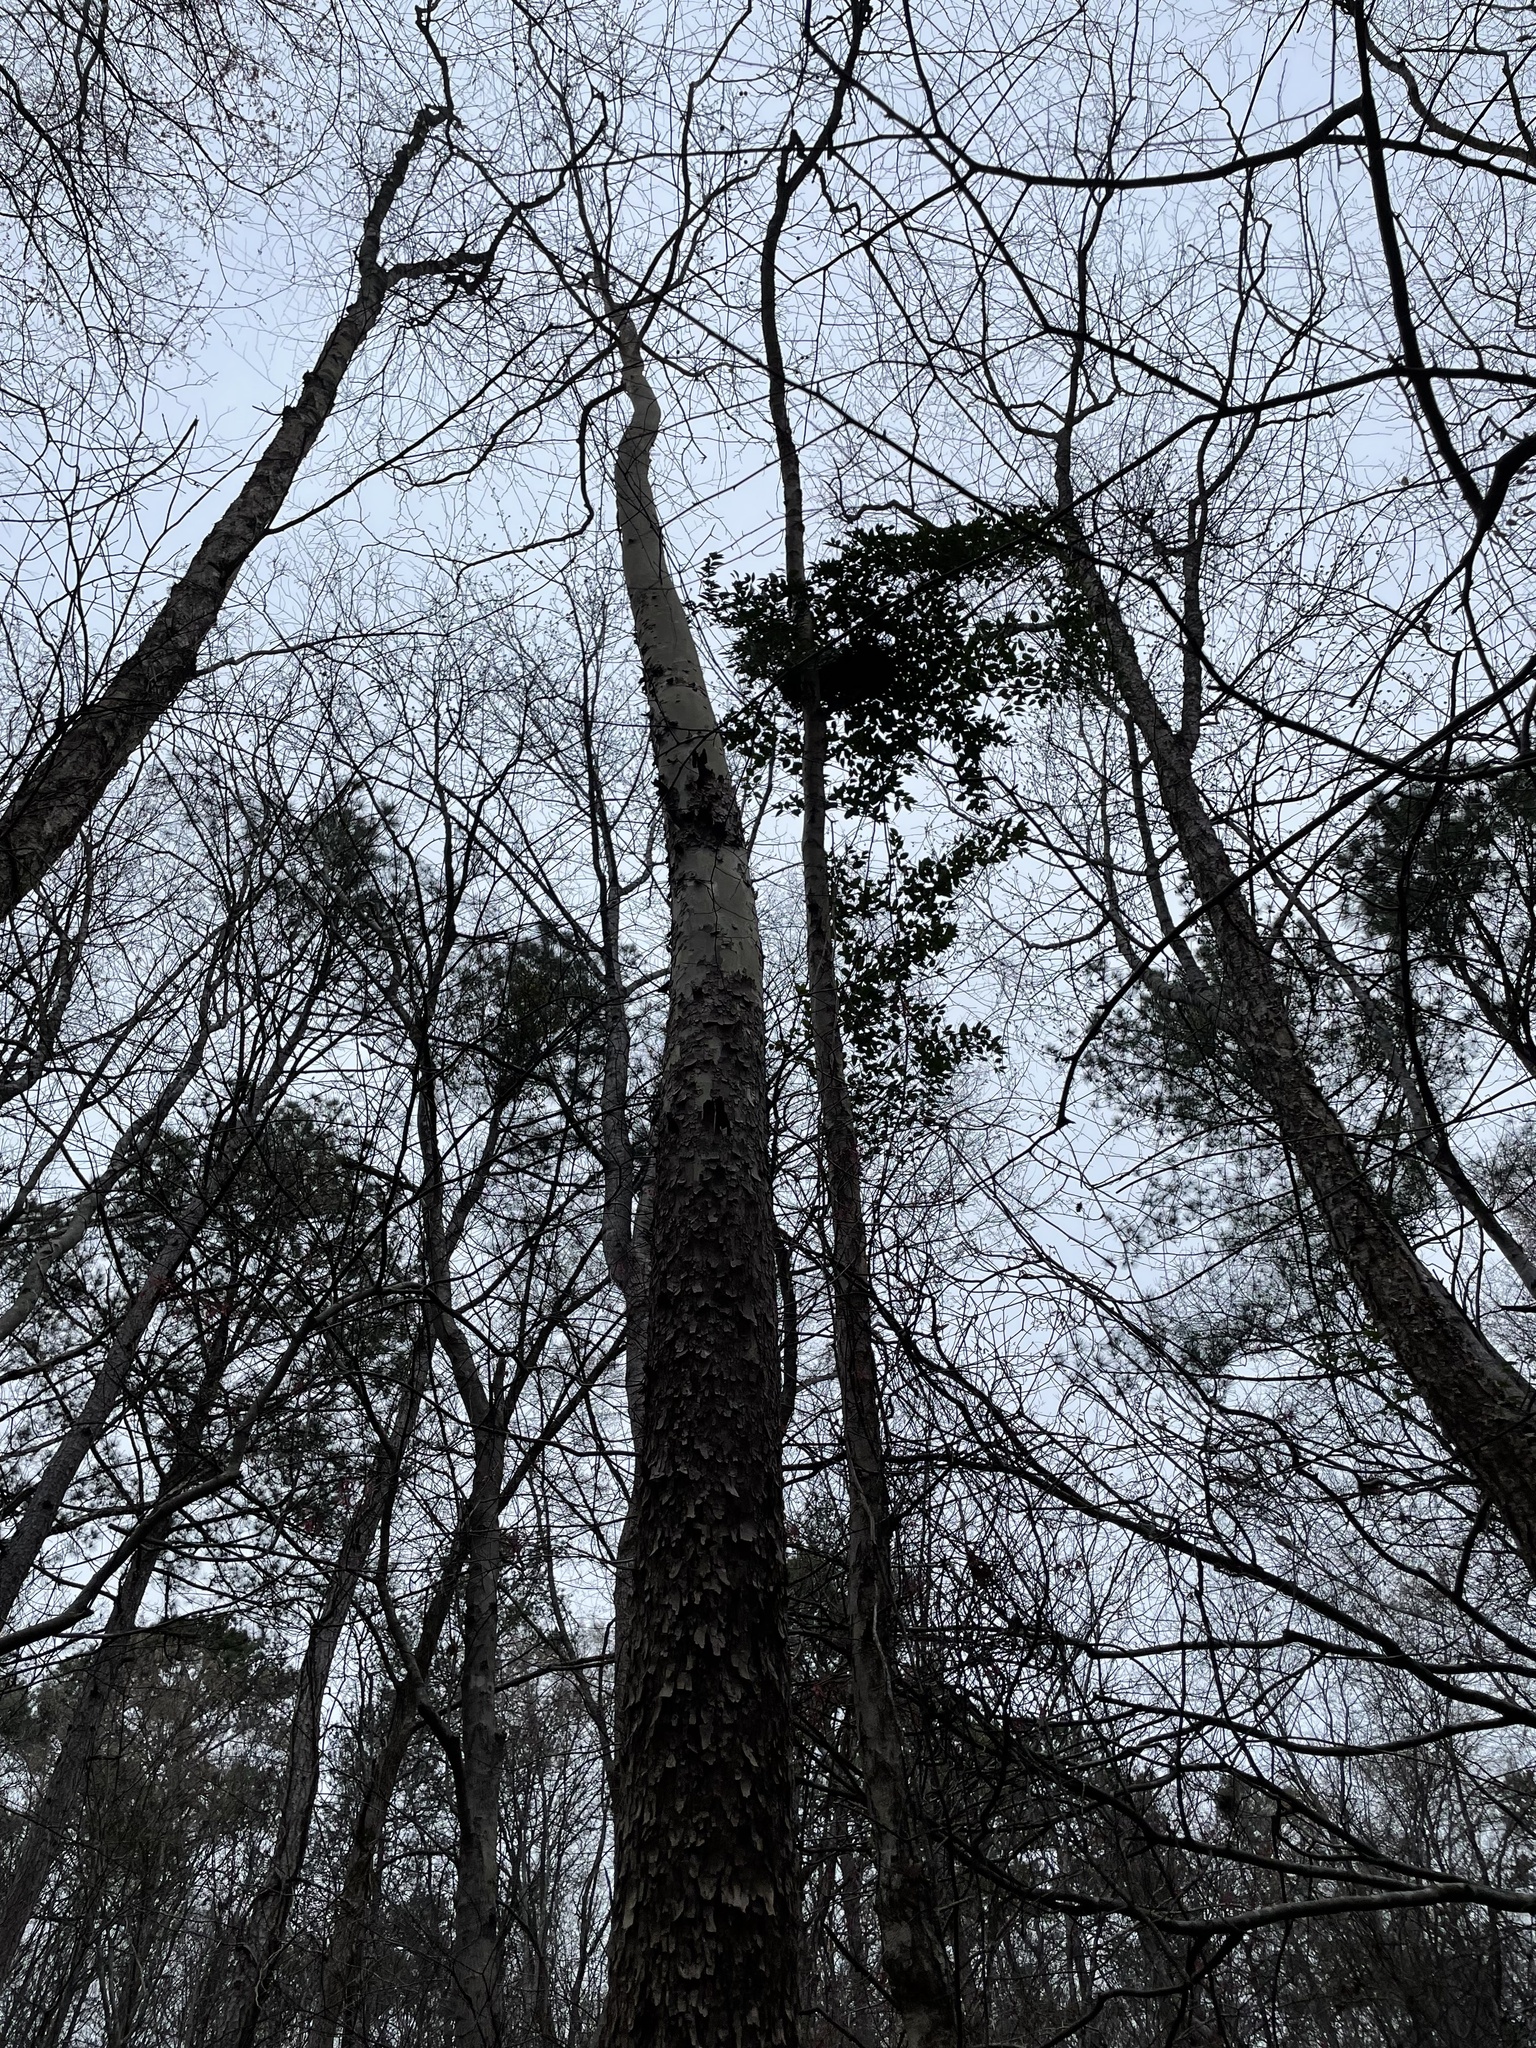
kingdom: Plantae
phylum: Tracheophyta
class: Magnoliopsida
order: Proteales
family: Platanaceae
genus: Platanus
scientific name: Platanus occidentalis
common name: American sycamore
